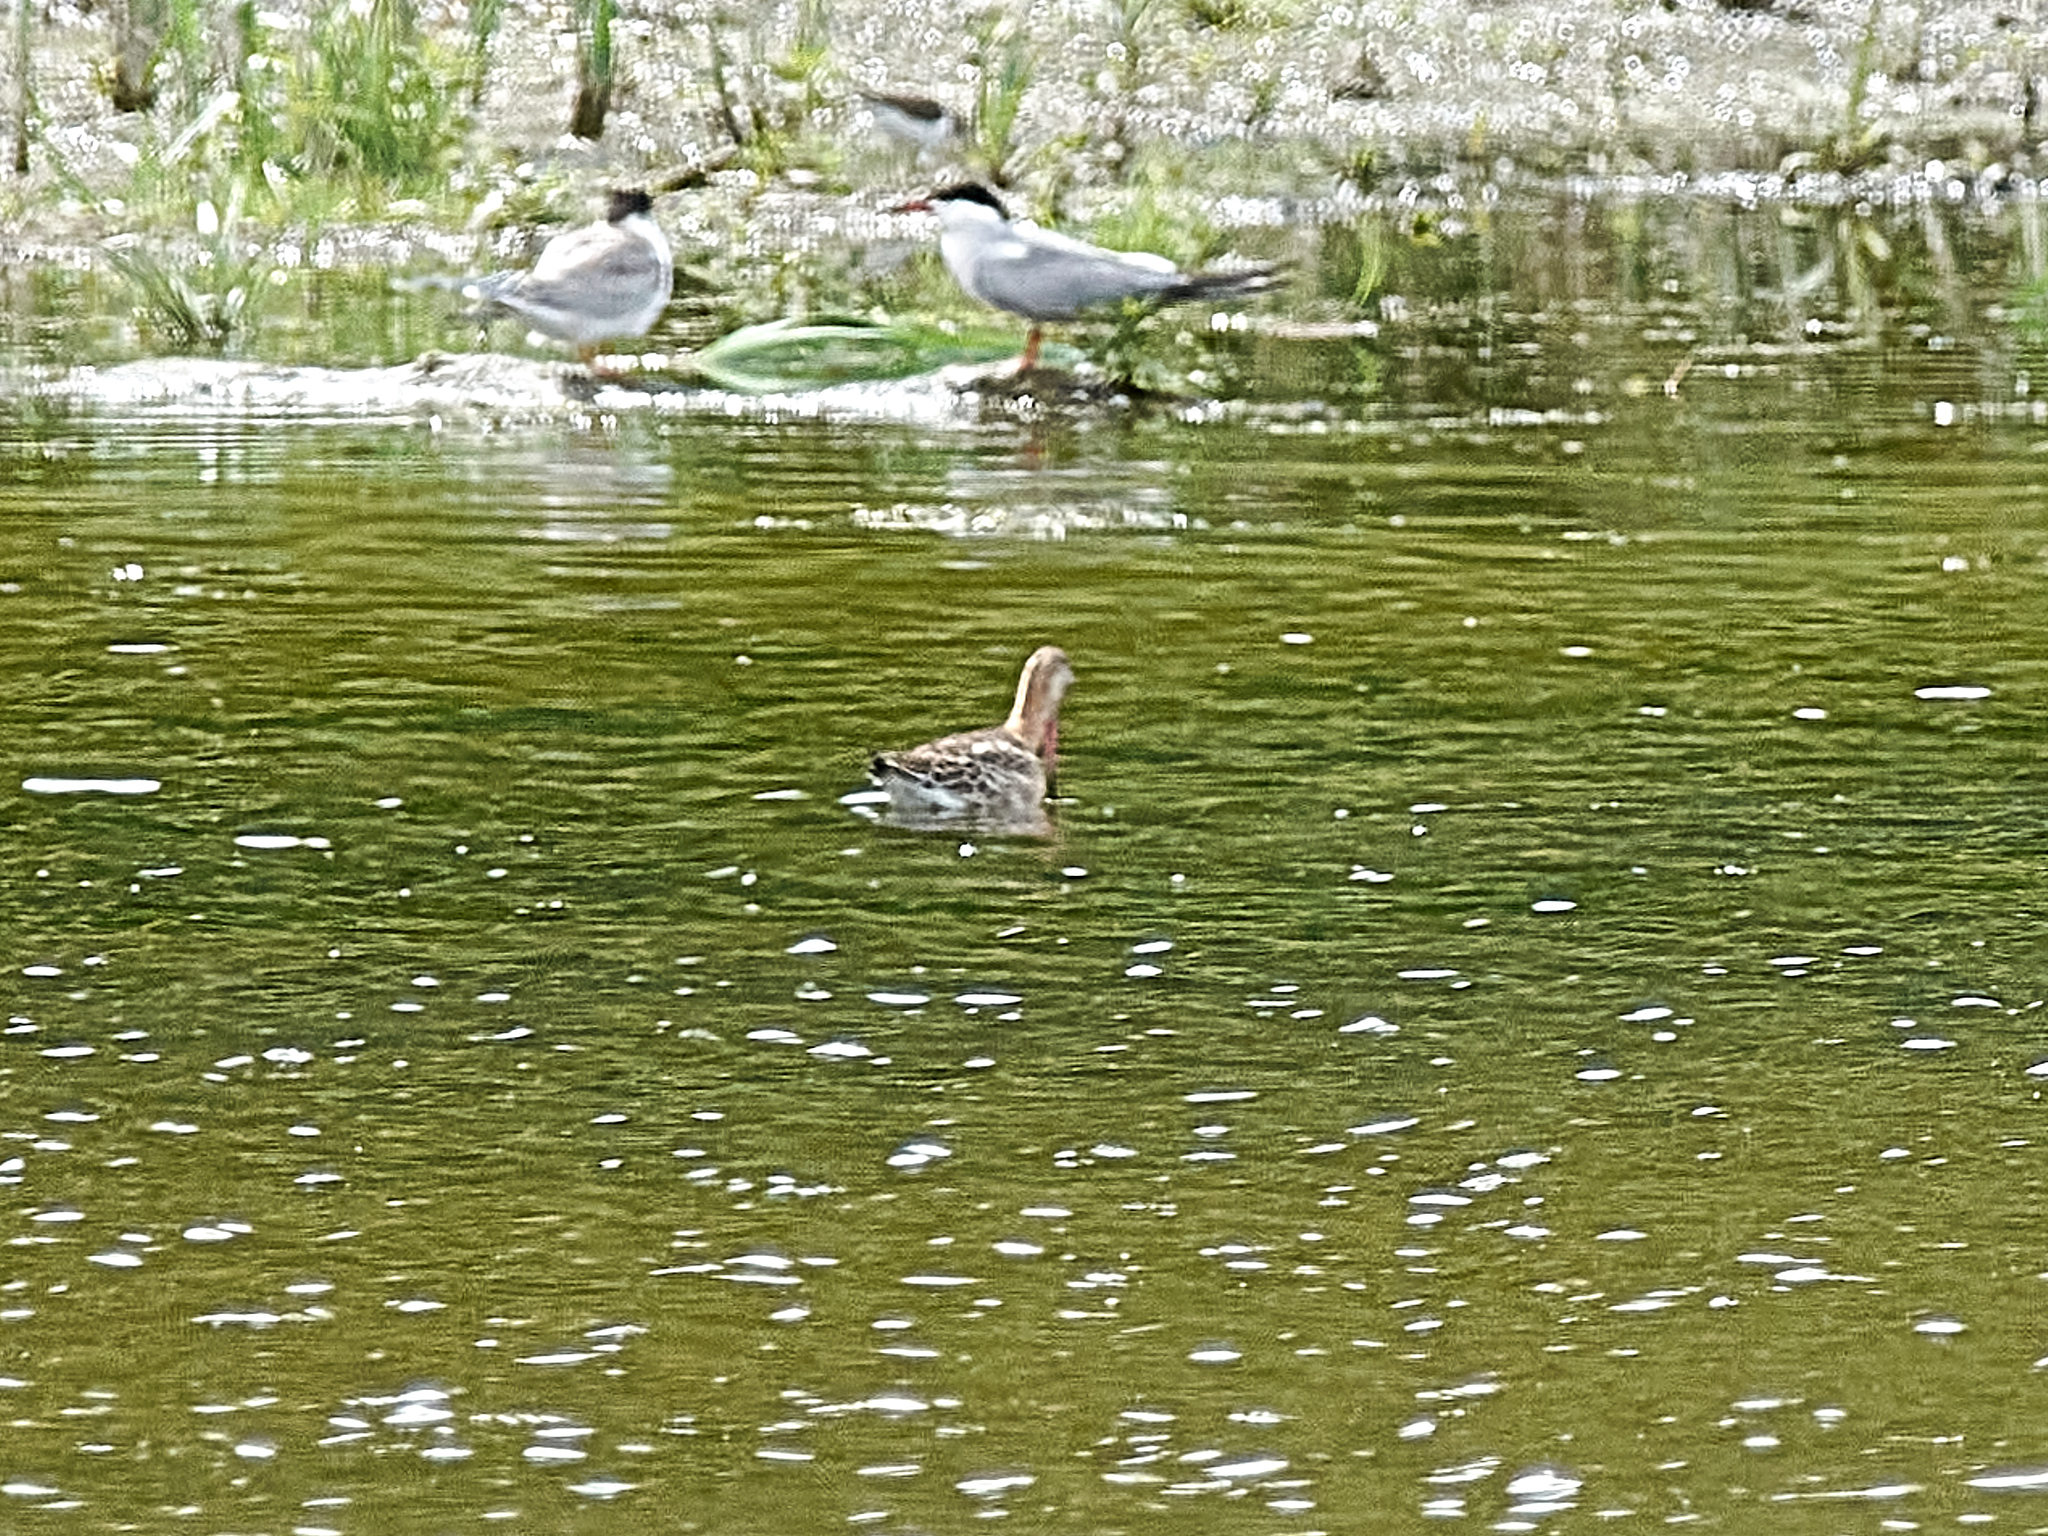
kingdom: Animalia
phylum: Chordata
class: Aves
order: Charadriiformes
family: Scolopacidae
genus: Limosa
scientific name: Limosa limosa
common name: Black-tailed godwit
